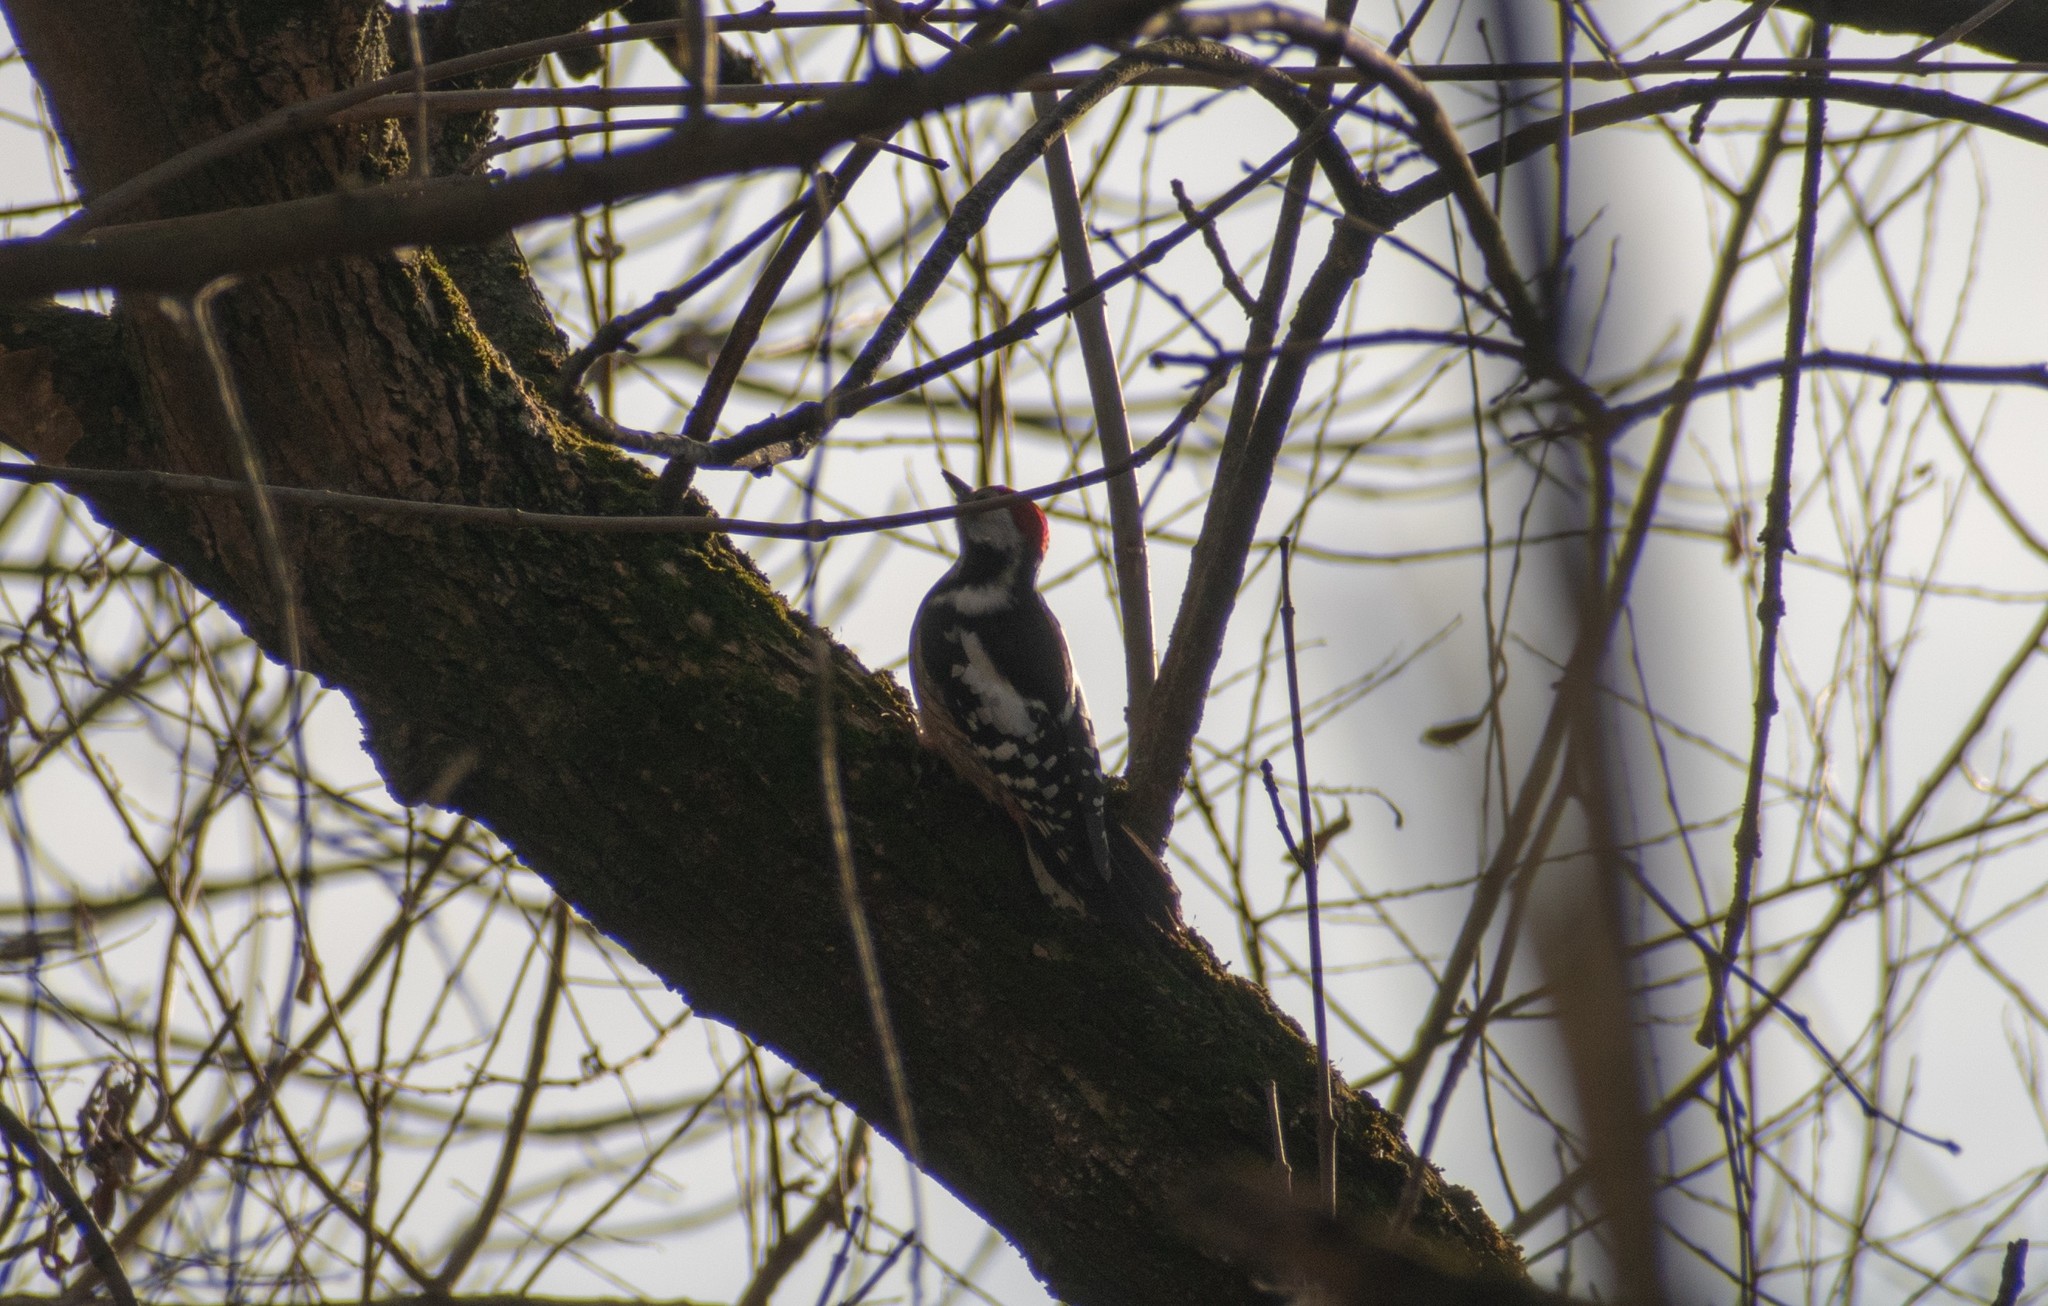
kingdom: Animalia
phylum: Chordata
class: Aves
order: Piciformes
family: Picidae
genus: Dendrocoptes
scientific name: Dendrocoptes medius
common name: Middle spotted woodpecker
